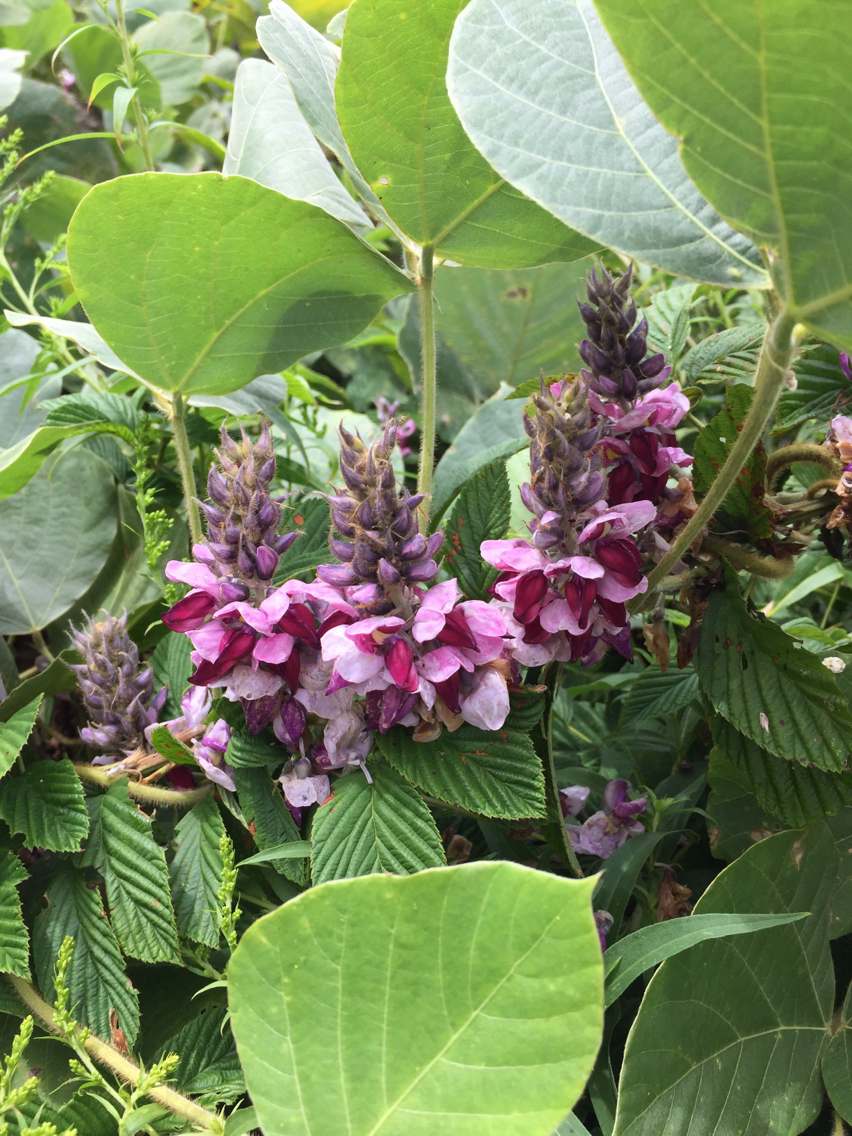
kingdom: Plantae
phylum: Tracheophyta
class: Magnoliopsida
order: Fabales
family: Fabaceae
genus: Pueraria
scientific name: Pueraria montana
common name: Kudzu
